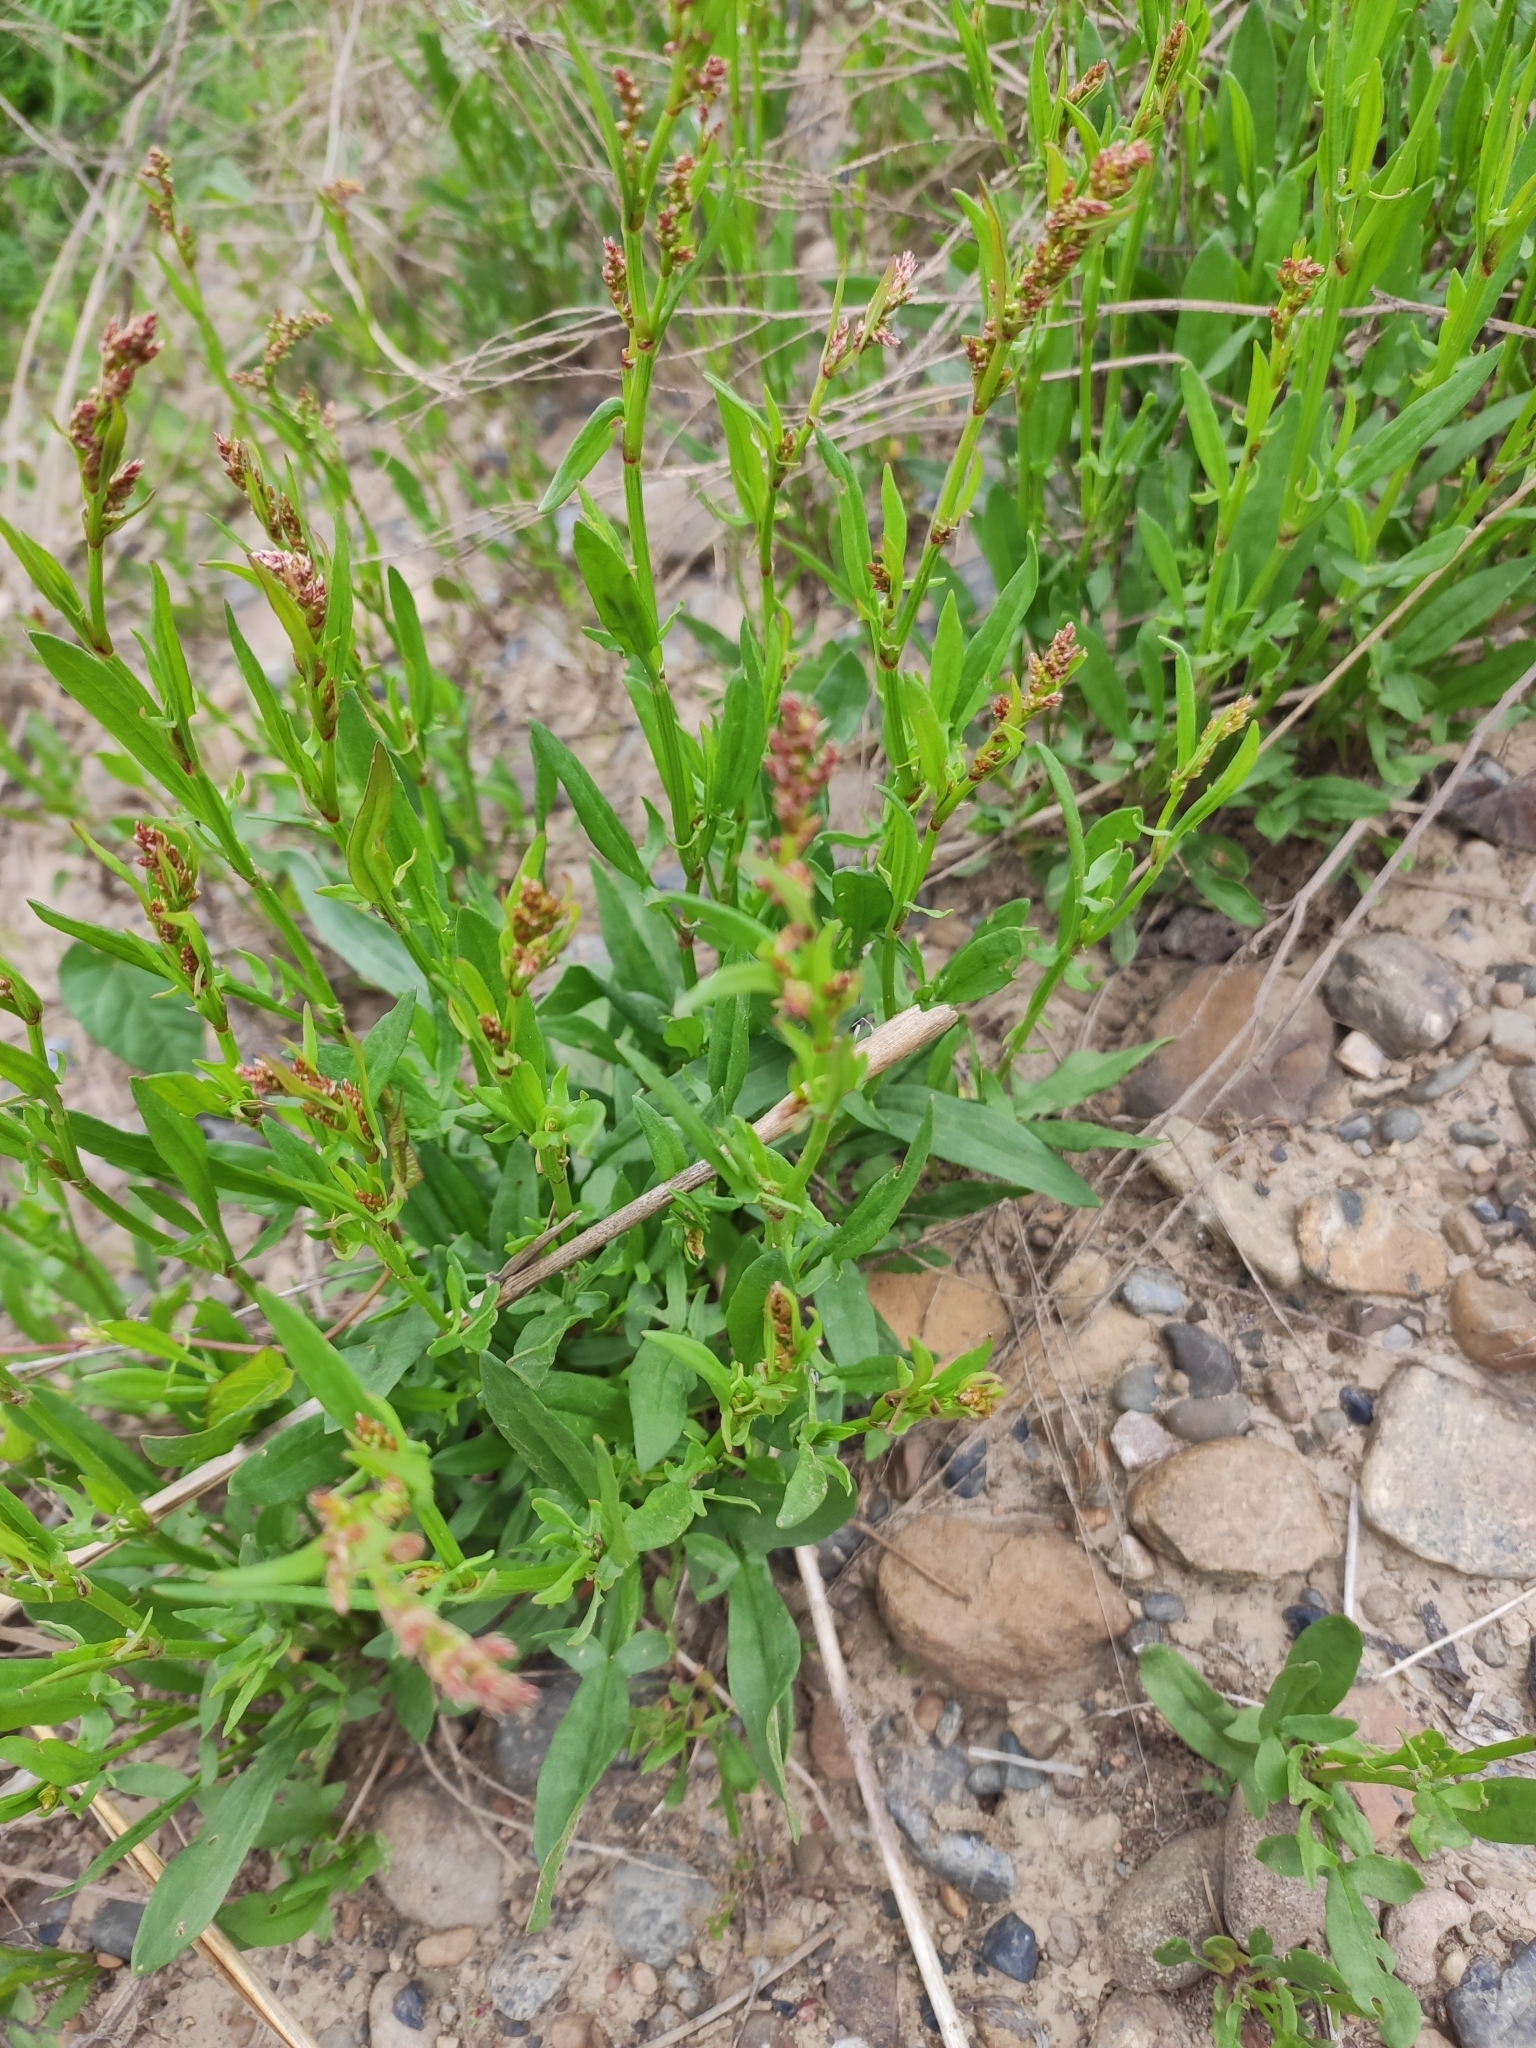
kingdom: Plantae
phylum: Tracheophyta
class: Magnoliopsida
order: Caryophyllales
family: Polygonaceae
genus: Rumex
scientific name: Rumex acetosella
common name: Common sheep sorrel
